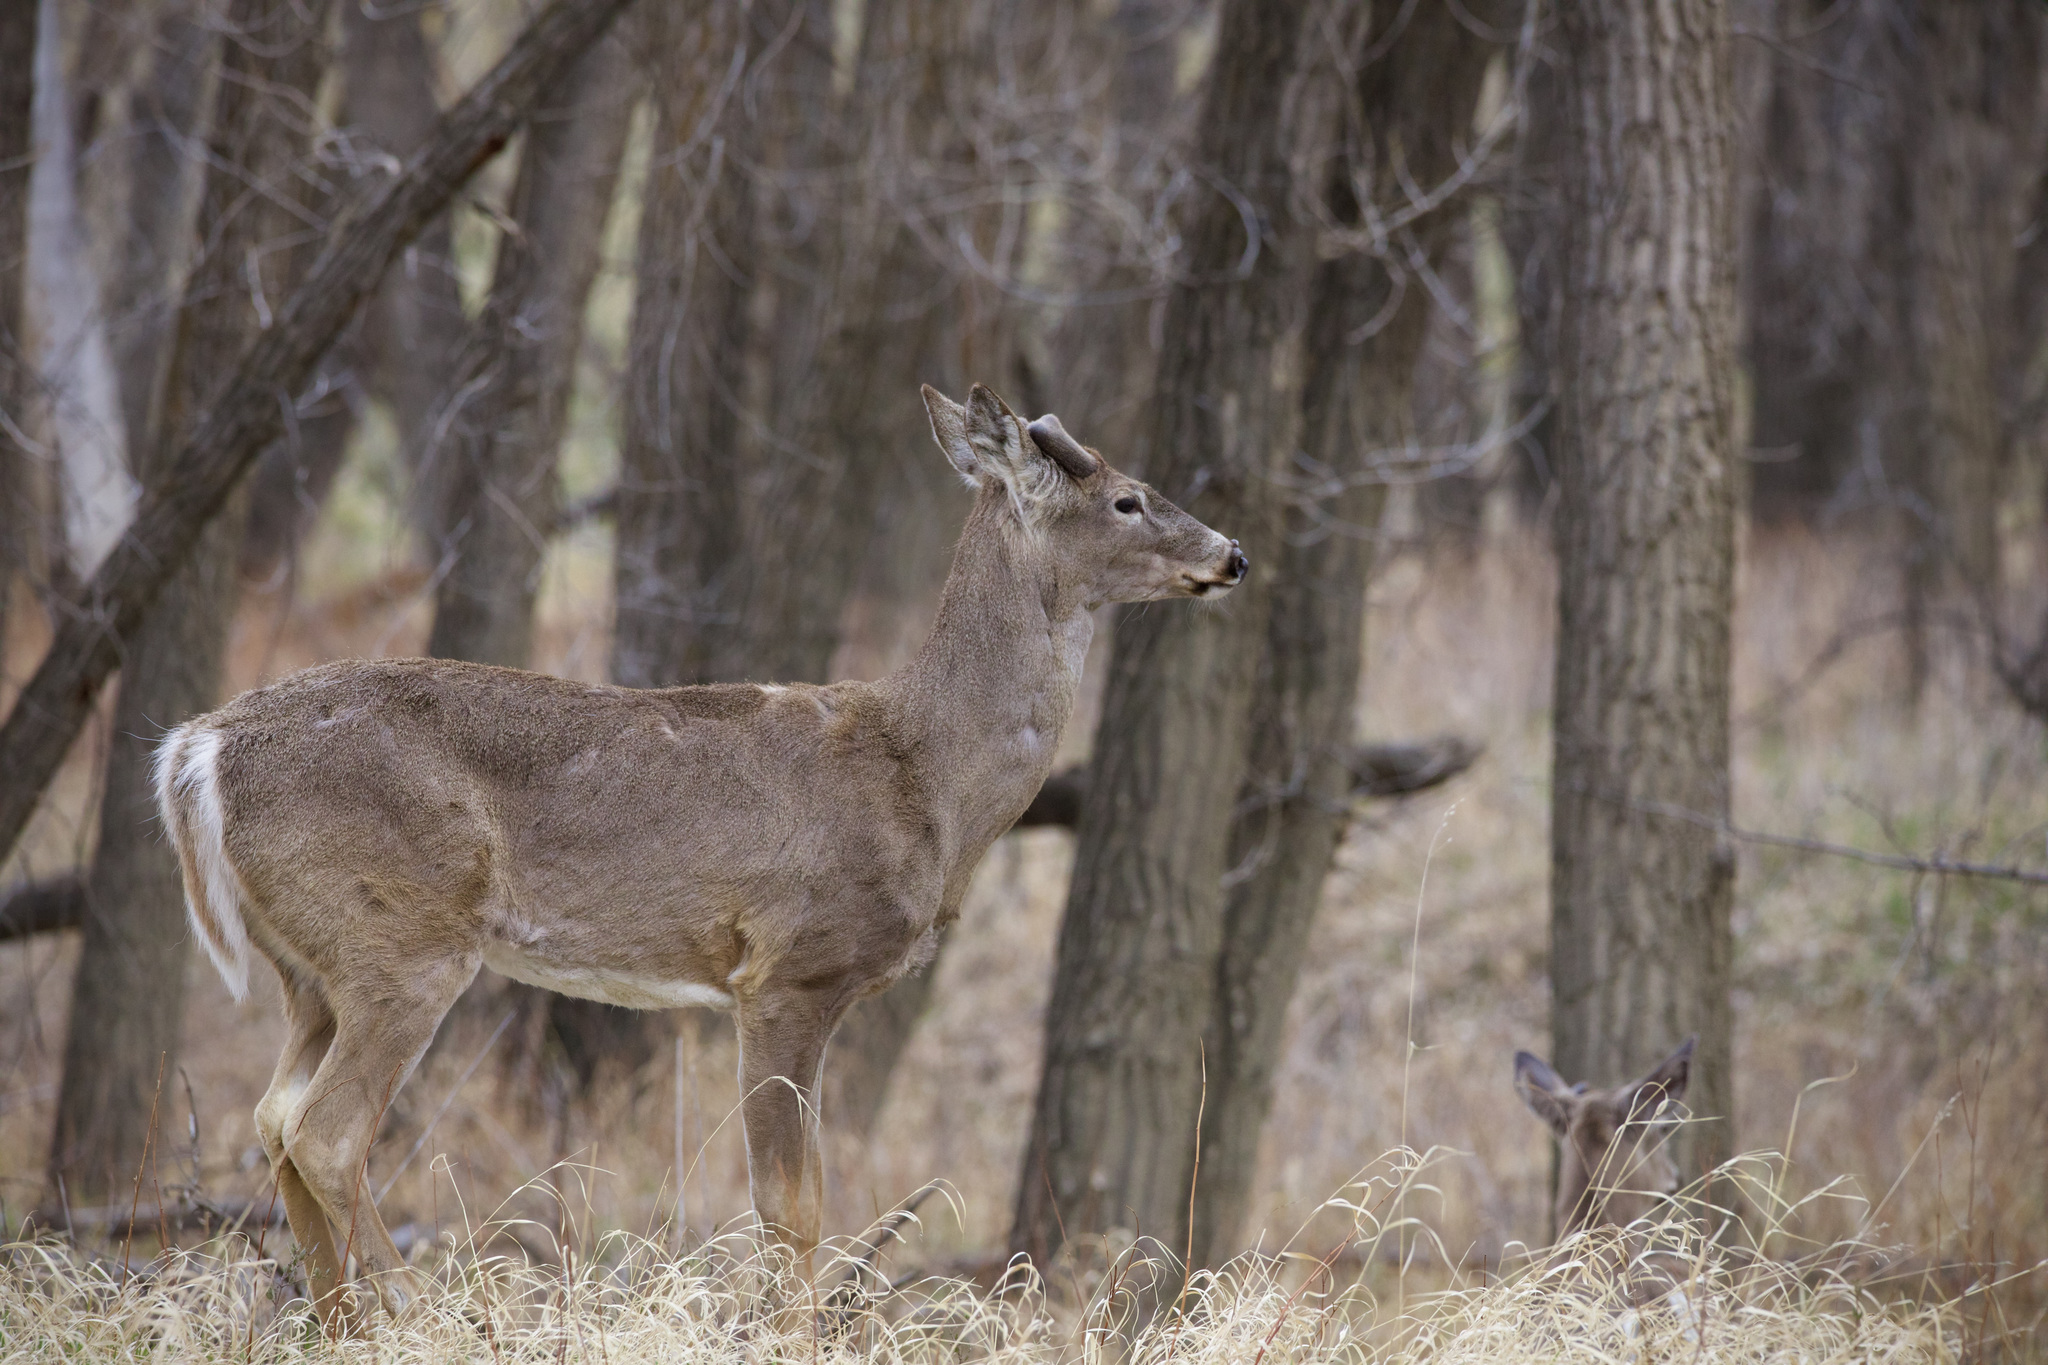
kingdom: Animalia
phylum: Chordata
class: Mammalia
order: Artiodactyla
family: Cervidae
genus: Odocoileus
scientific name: Odocoileus virginianus
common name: White-tailed deer
